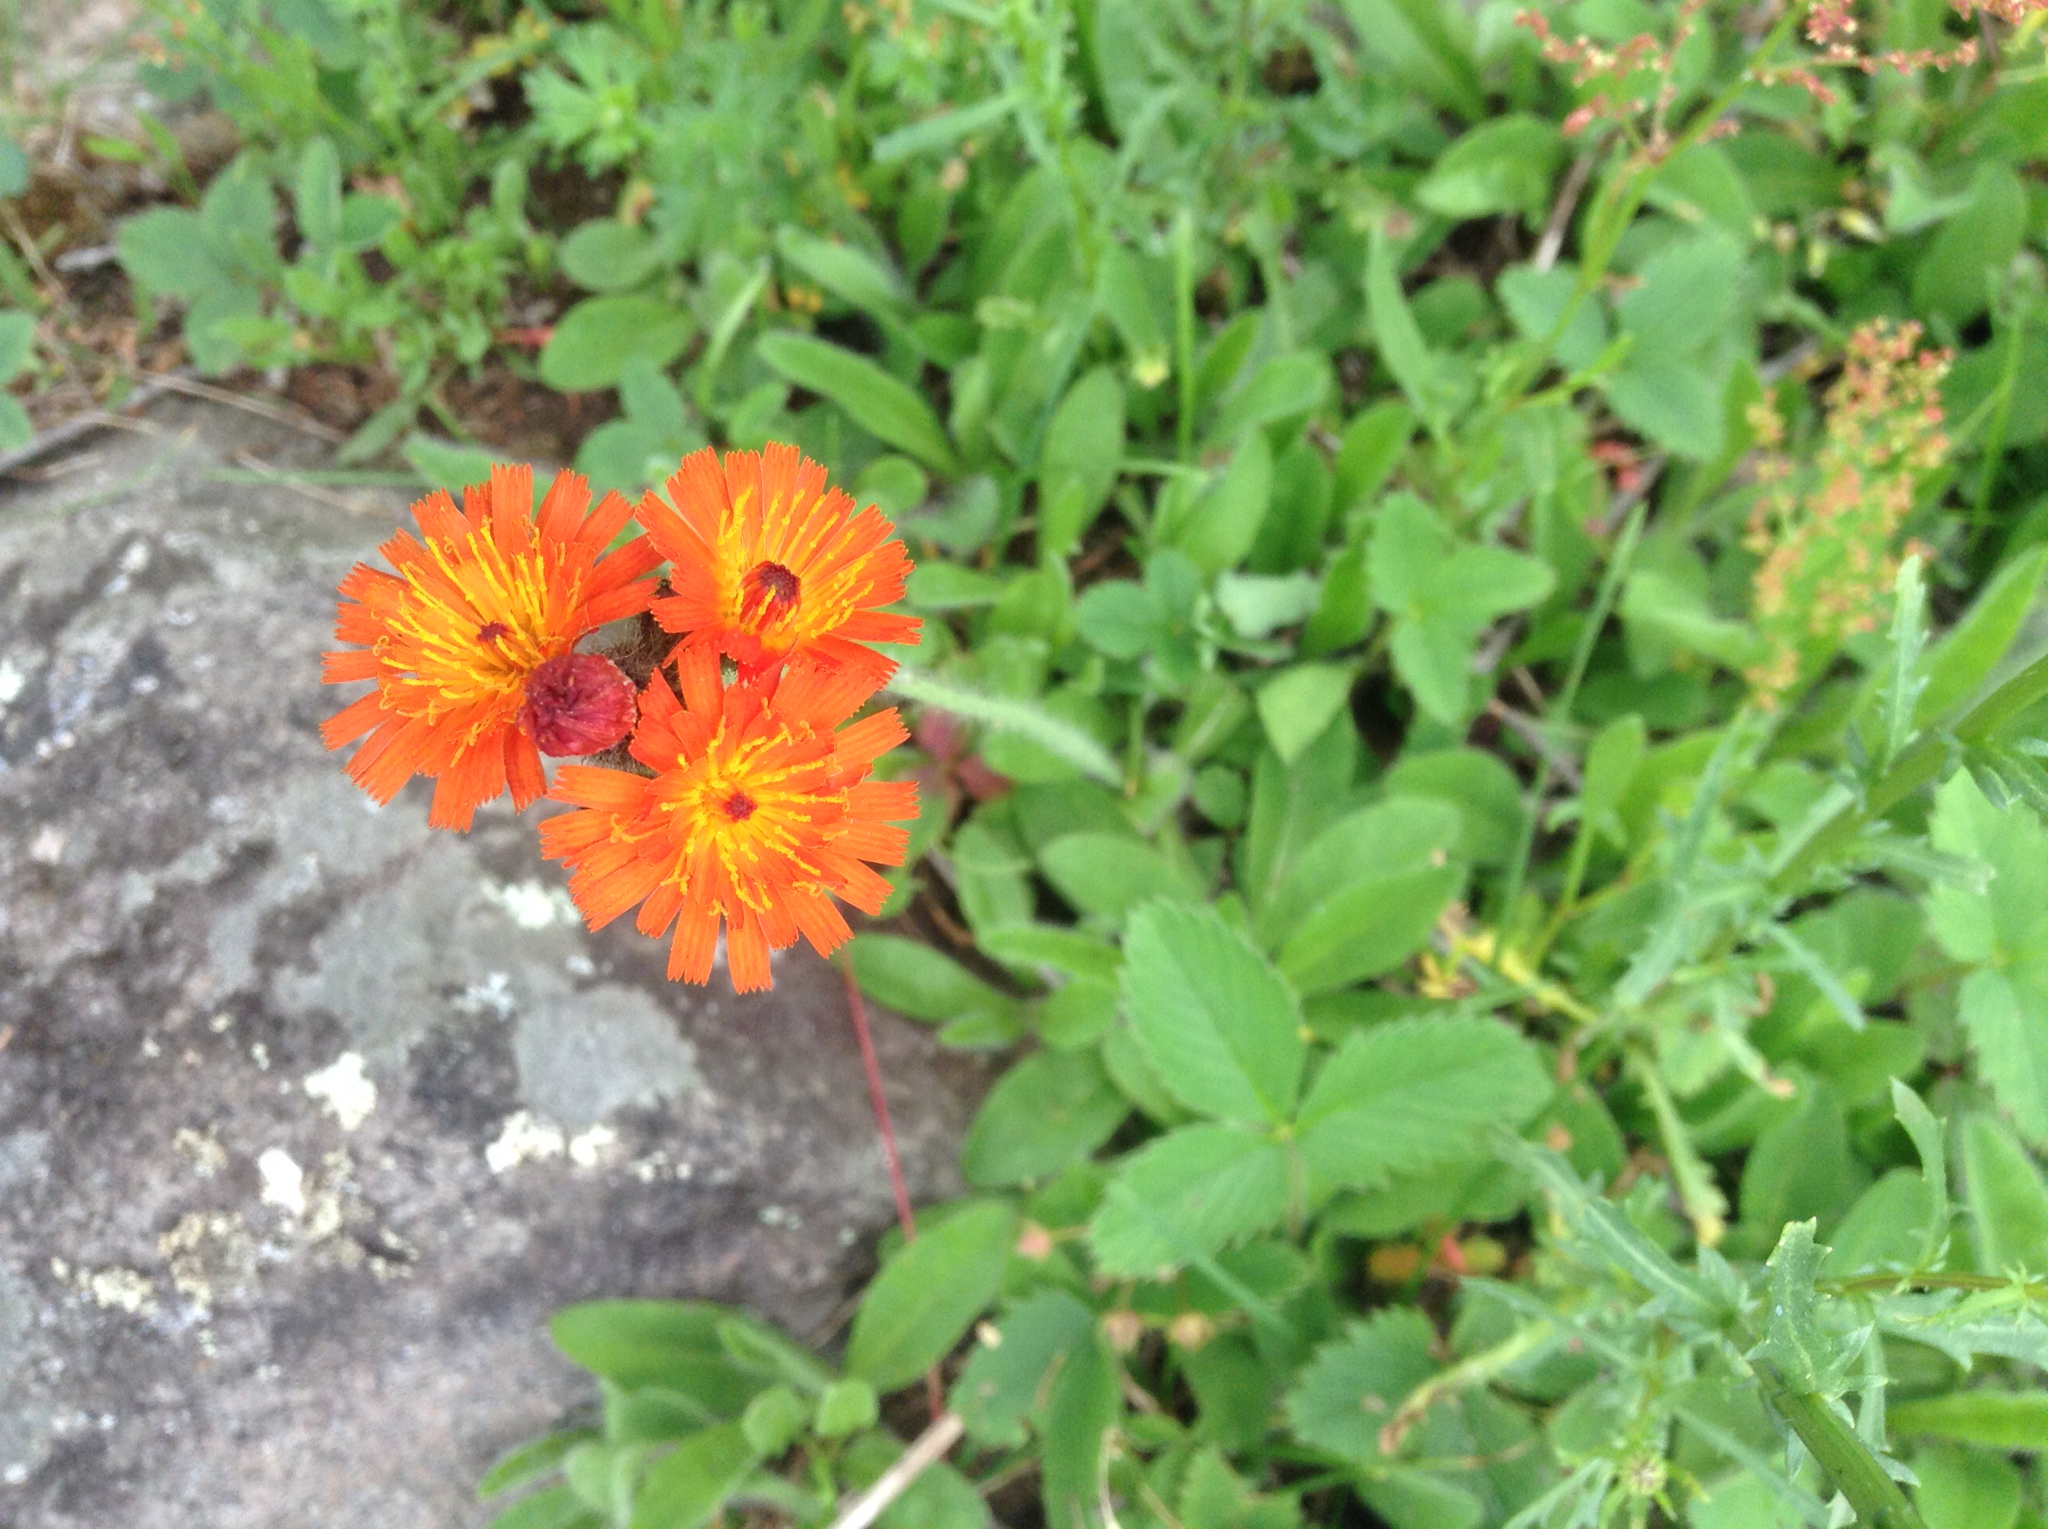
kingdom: Plantae
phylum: Tracheophyta
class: Magnoliopsida
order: Asterales
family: Asteraceae
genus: Pilosella
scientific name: Pilosella aurantiaca
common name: Fox-and-cubs
